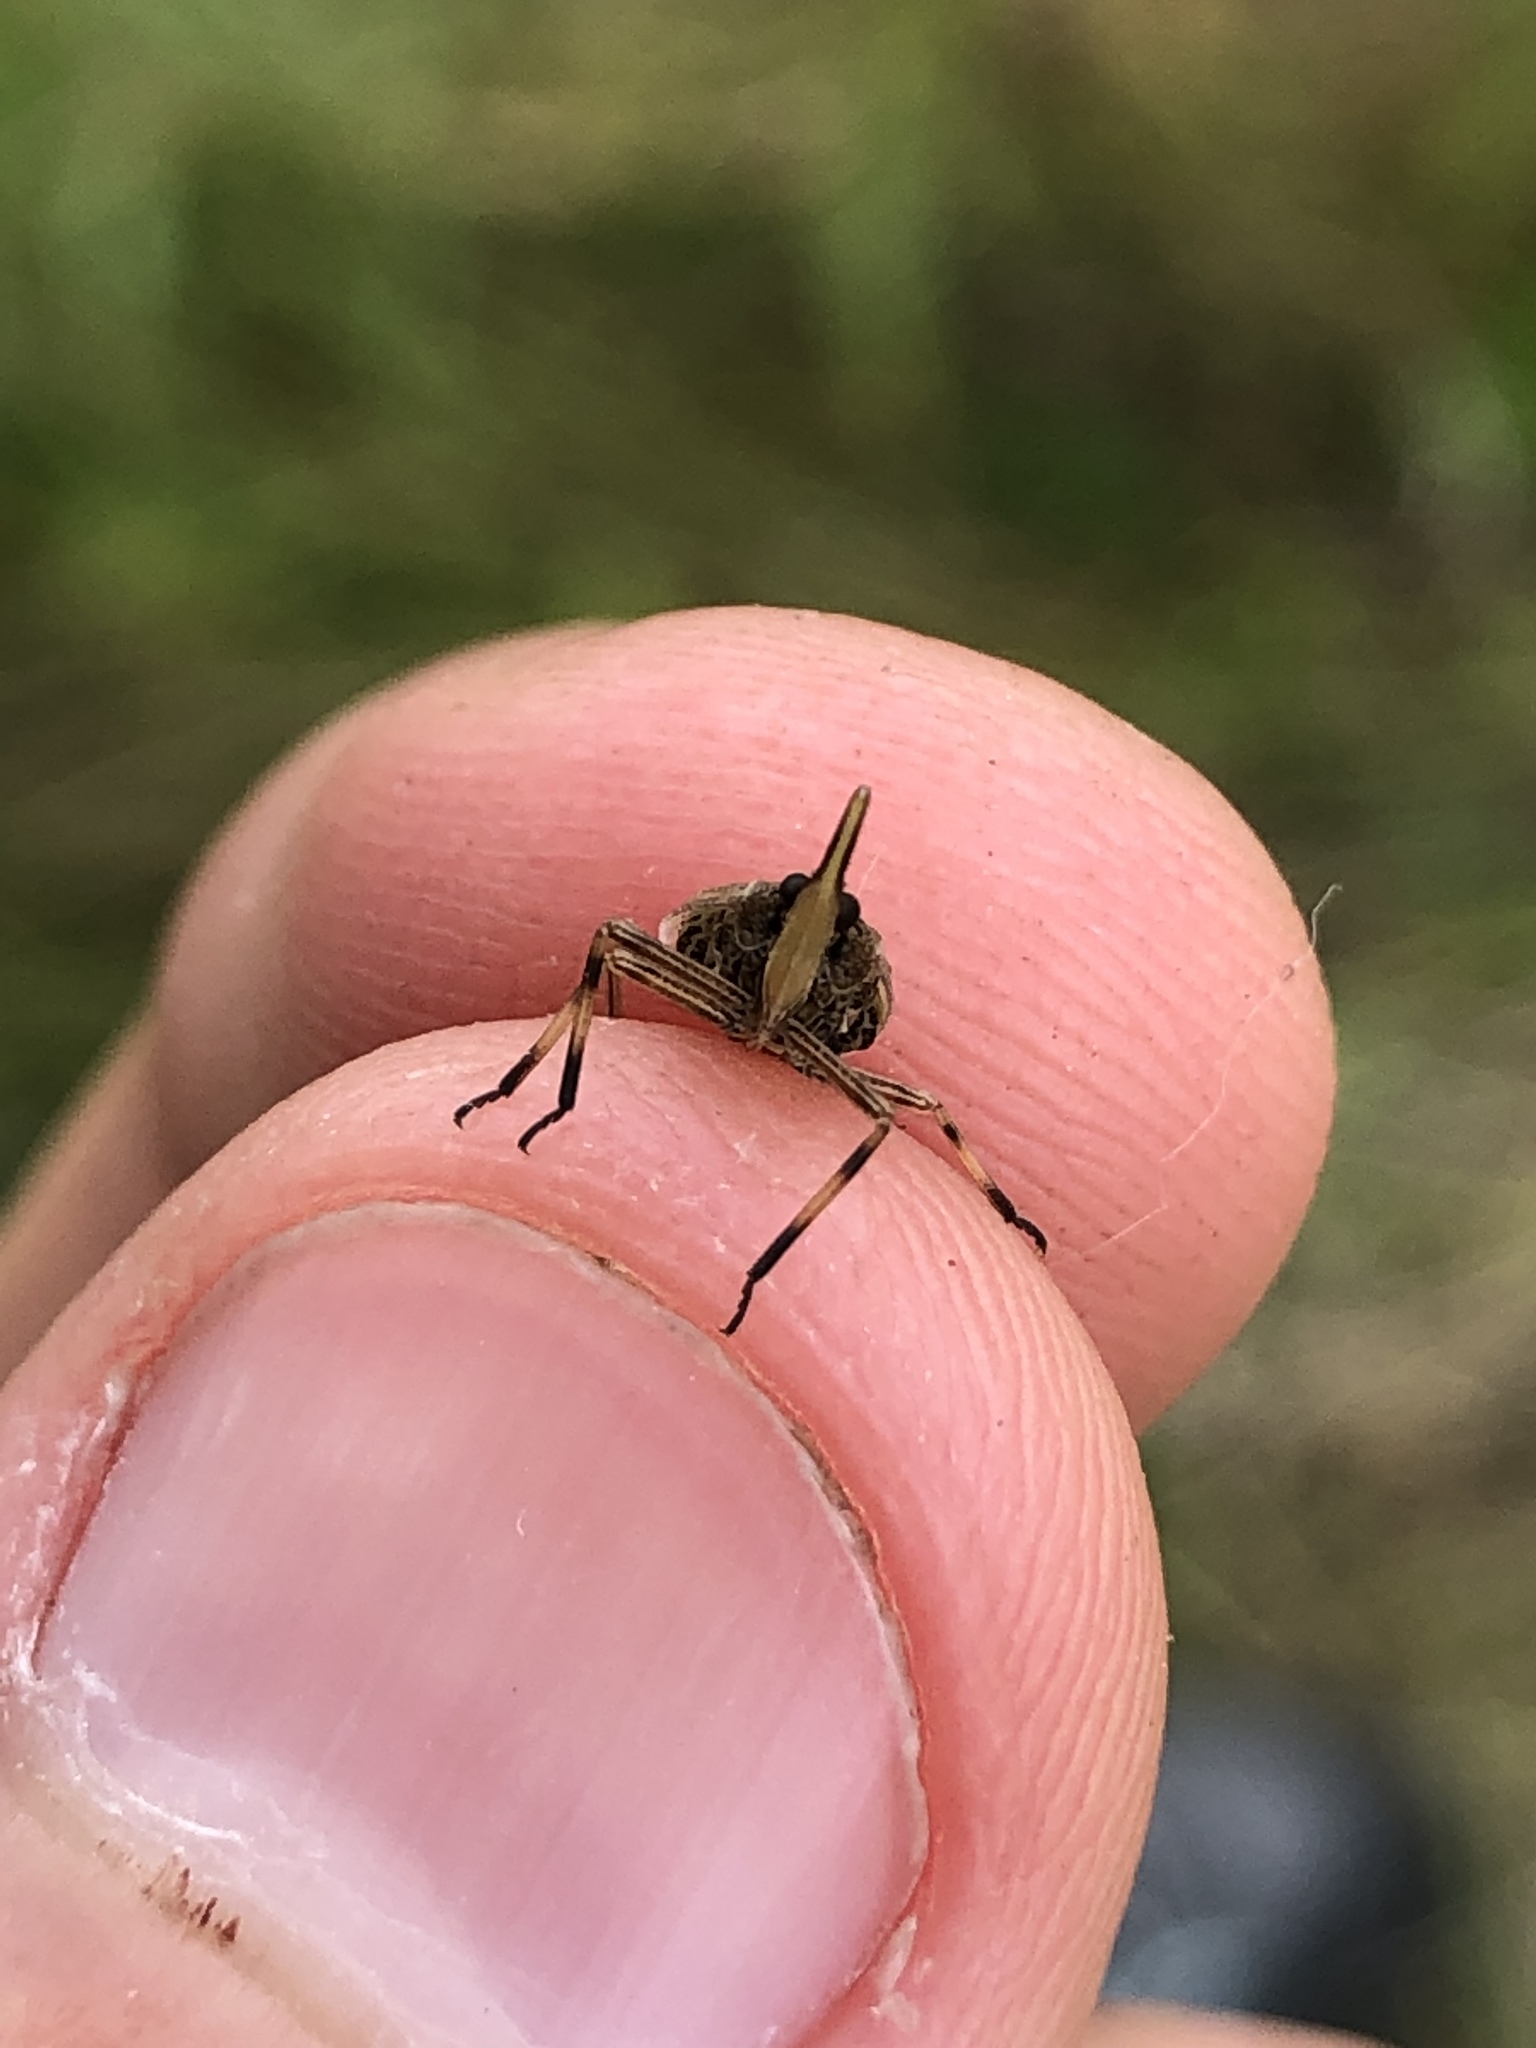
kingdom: Animalia
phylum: Arthropoda
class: Insecta
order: Hemiptera
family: Dictyopharidae
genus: Scolops
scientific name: Scolops sulcipes
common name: Partridge planthopper
